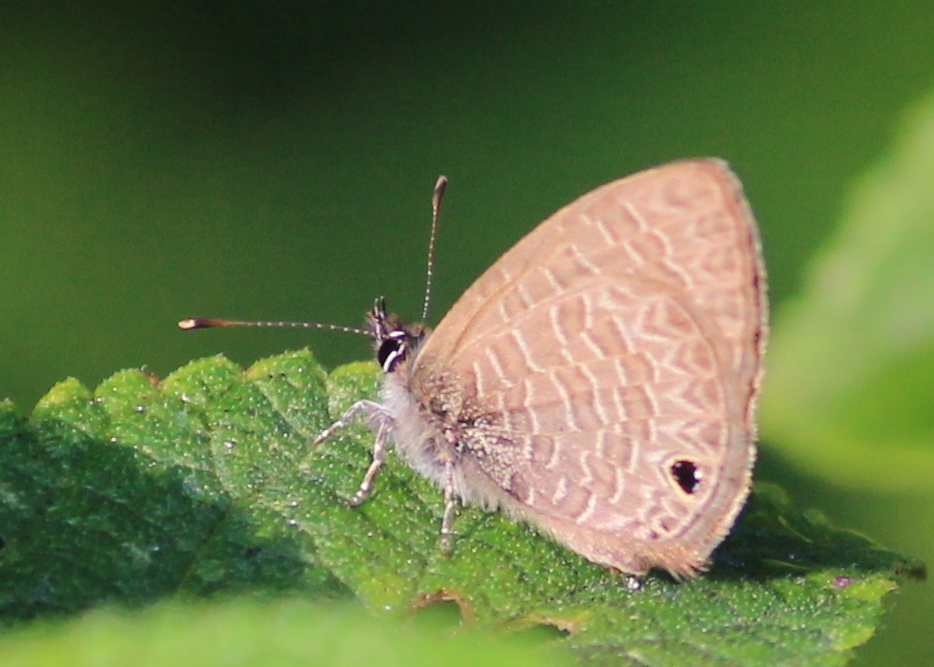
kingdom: Animalia
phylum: Arthropoda
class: Insecta
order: Lepidoptera
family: Lycaenidae
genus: Prosotas
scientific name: Prosotas dubiosa
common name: Tailless lineblue
